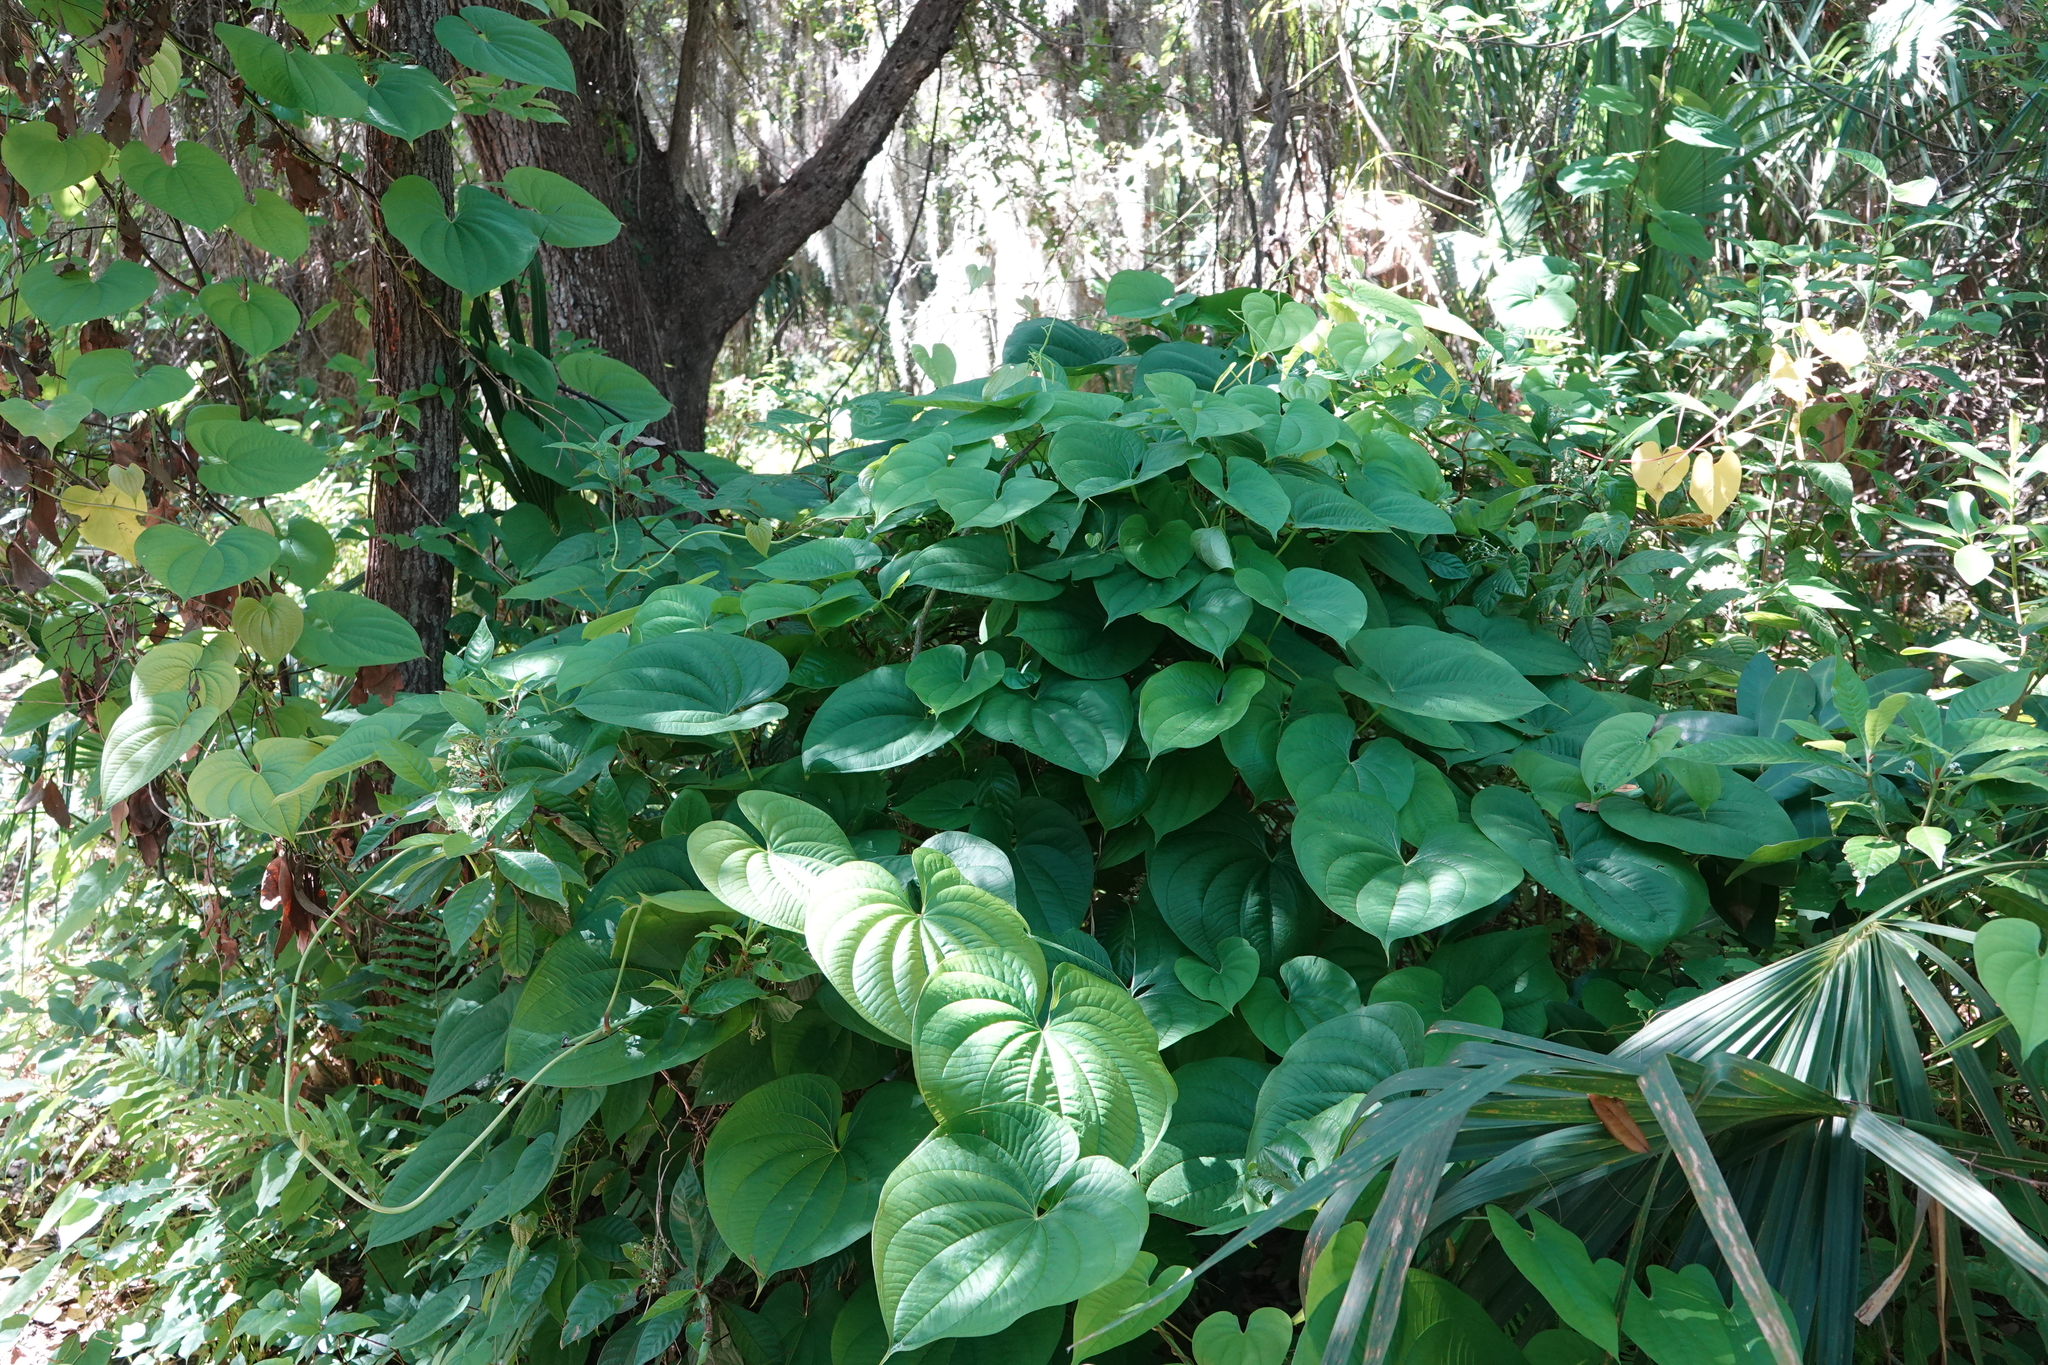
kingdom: Plantae
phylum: Tracheophyta
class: Liliopsida
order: Dioscoreales
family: Dioscoreaceae
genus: Dioscorea
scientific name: Dioscorea bulbifera
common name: Air yam
